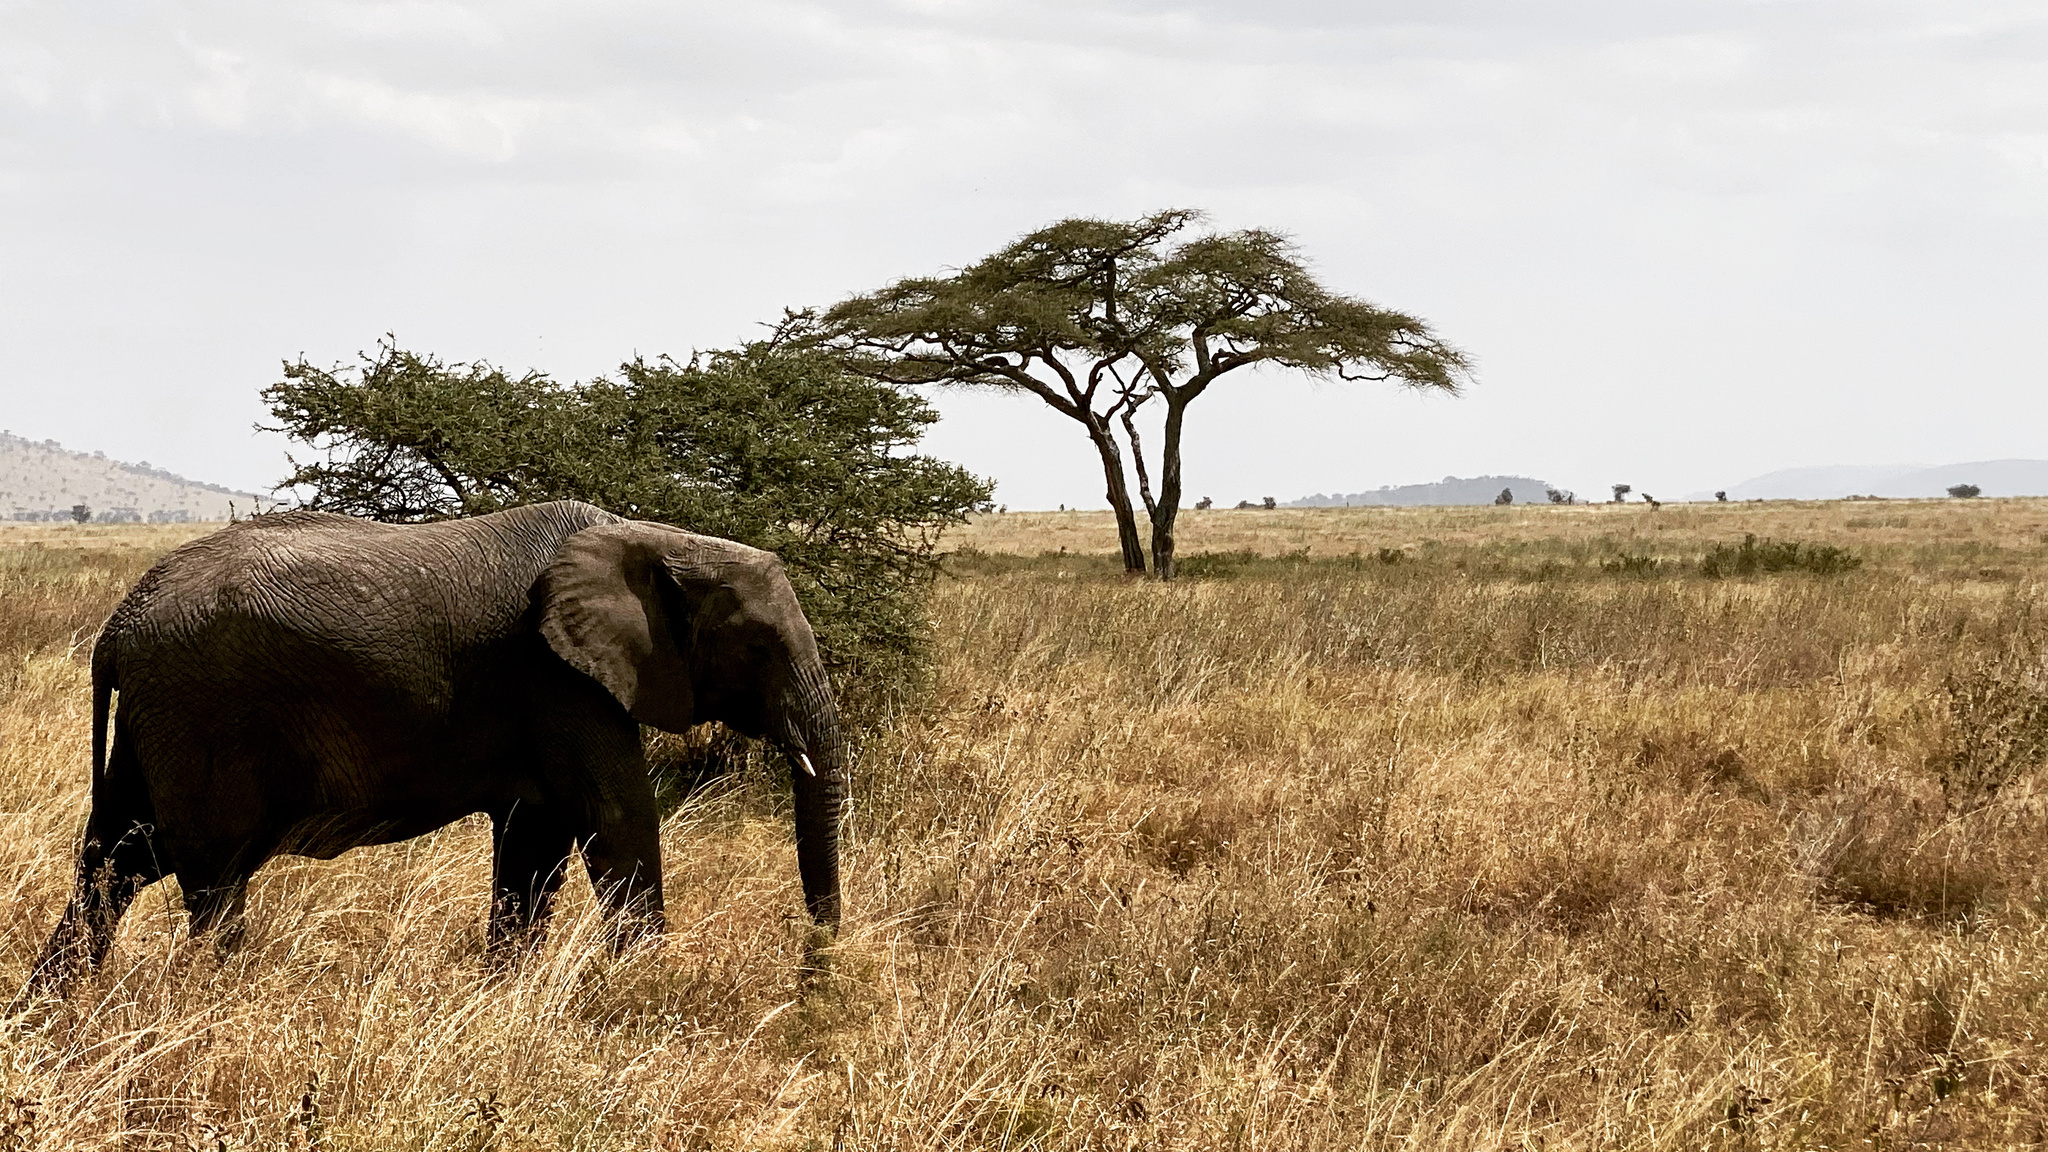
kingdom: Animalia
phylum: Chordata
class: Mammalia
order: Proboscidea
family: Elephantidae
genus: Loxodonta
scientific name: Loxodonta africana
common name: African elephant
